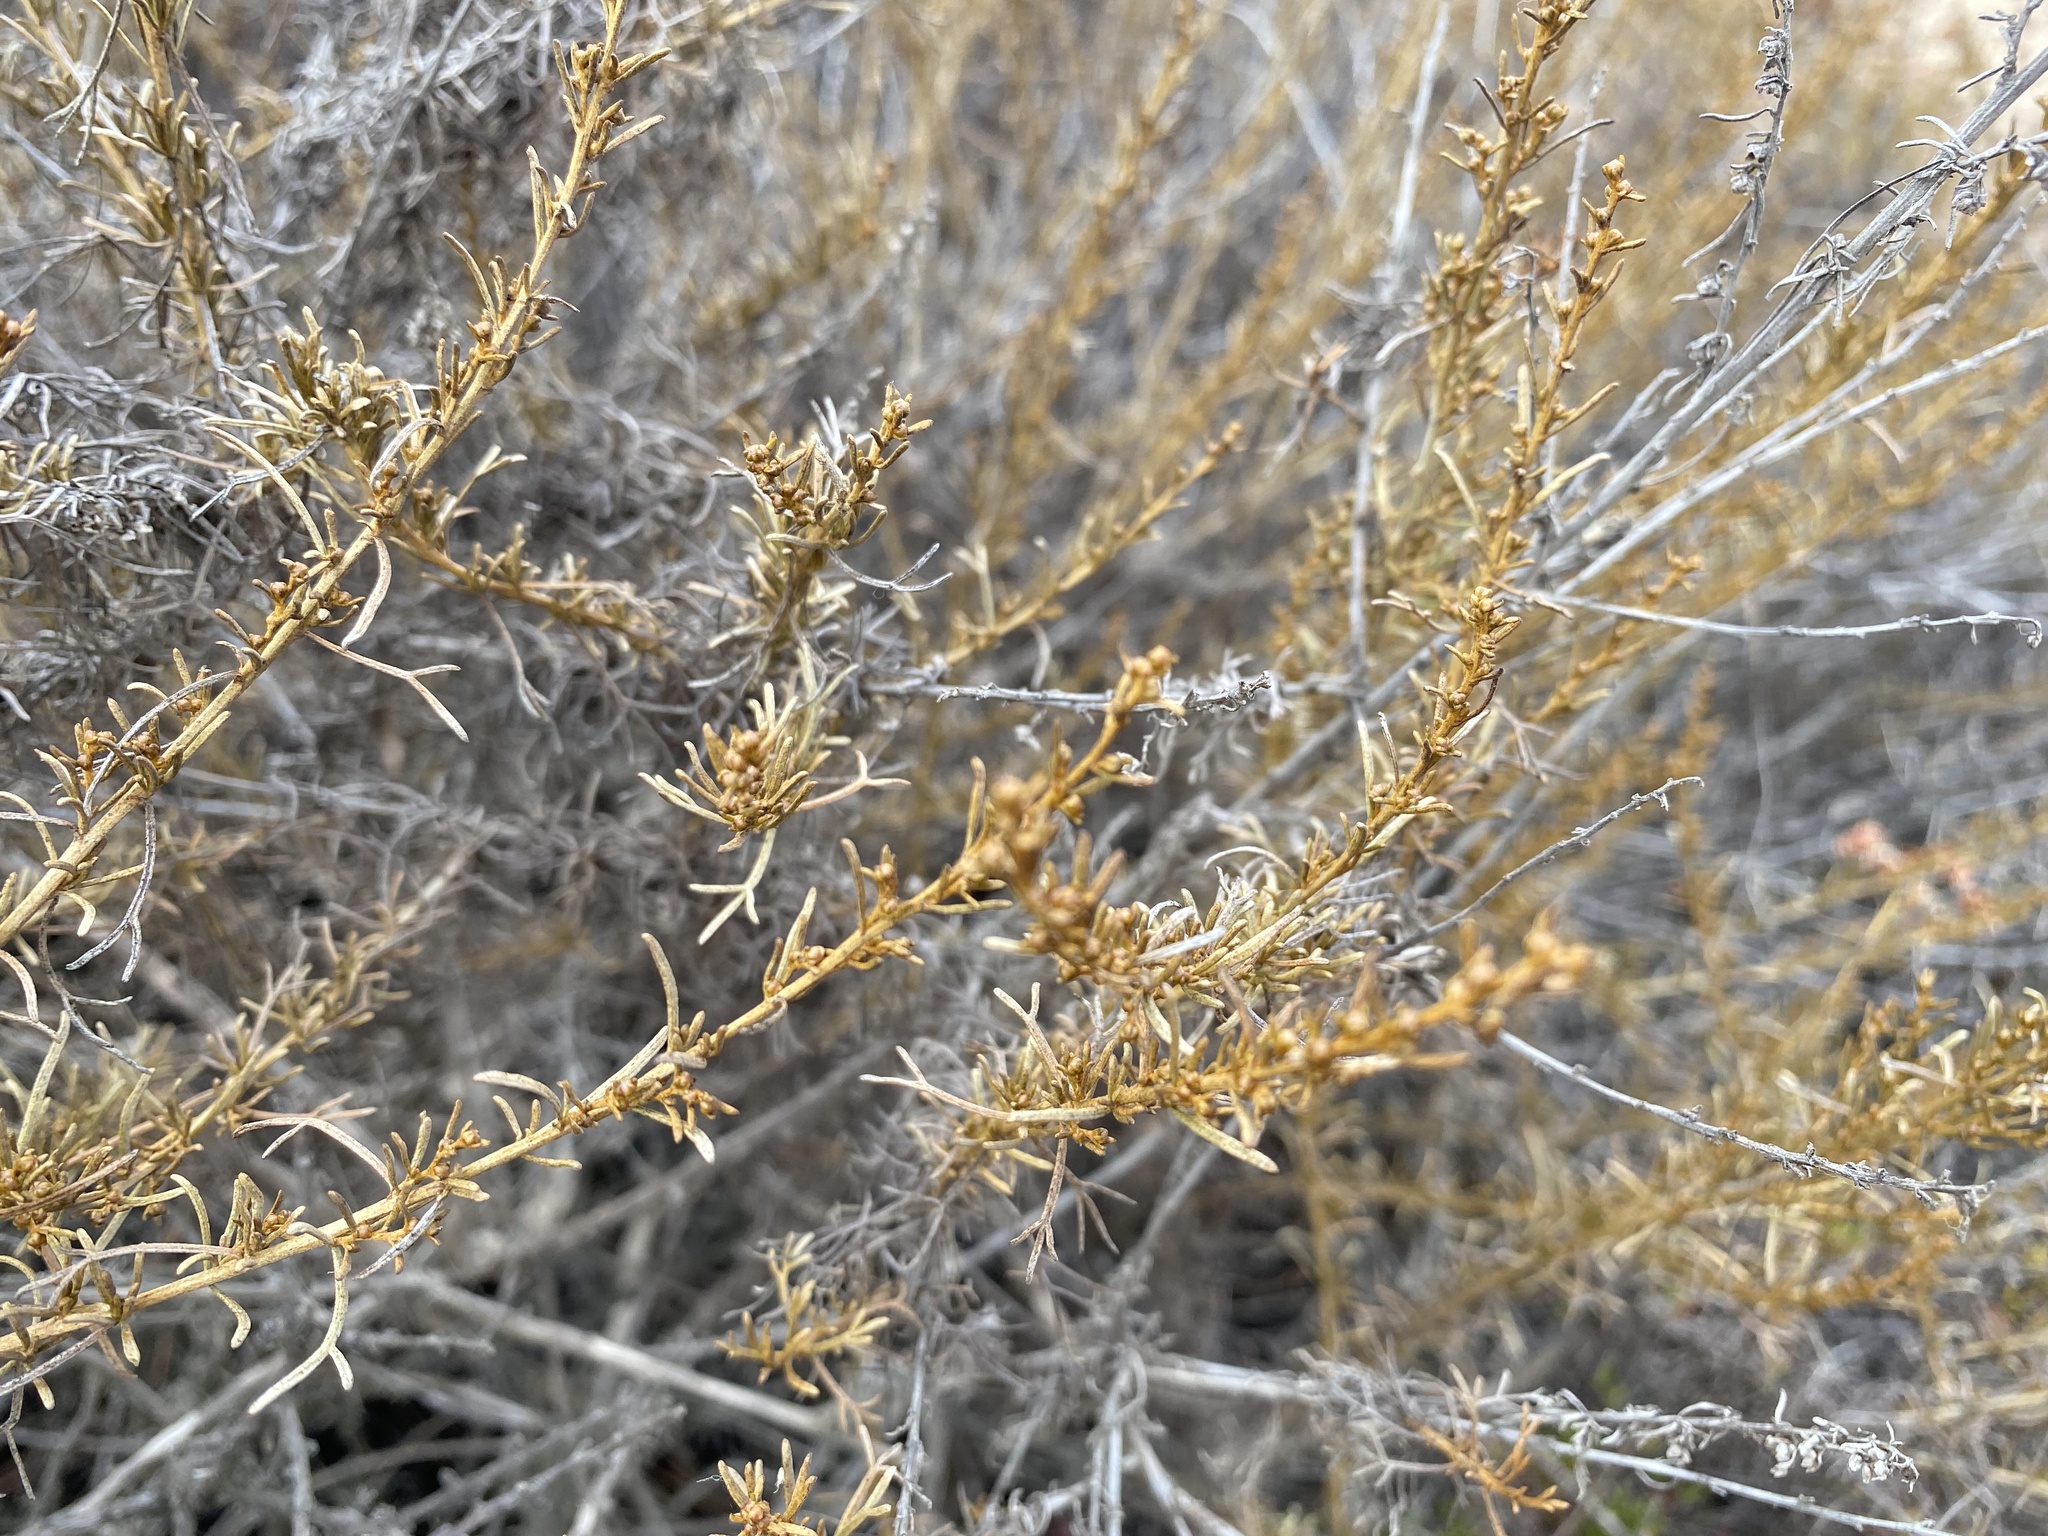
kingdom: Plantae
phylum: Tracheophyta
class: Magnoliopsida
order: Asterales
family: Asteraceae
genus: Artemisia
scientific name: Artemisia californica
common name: California sagebrush
